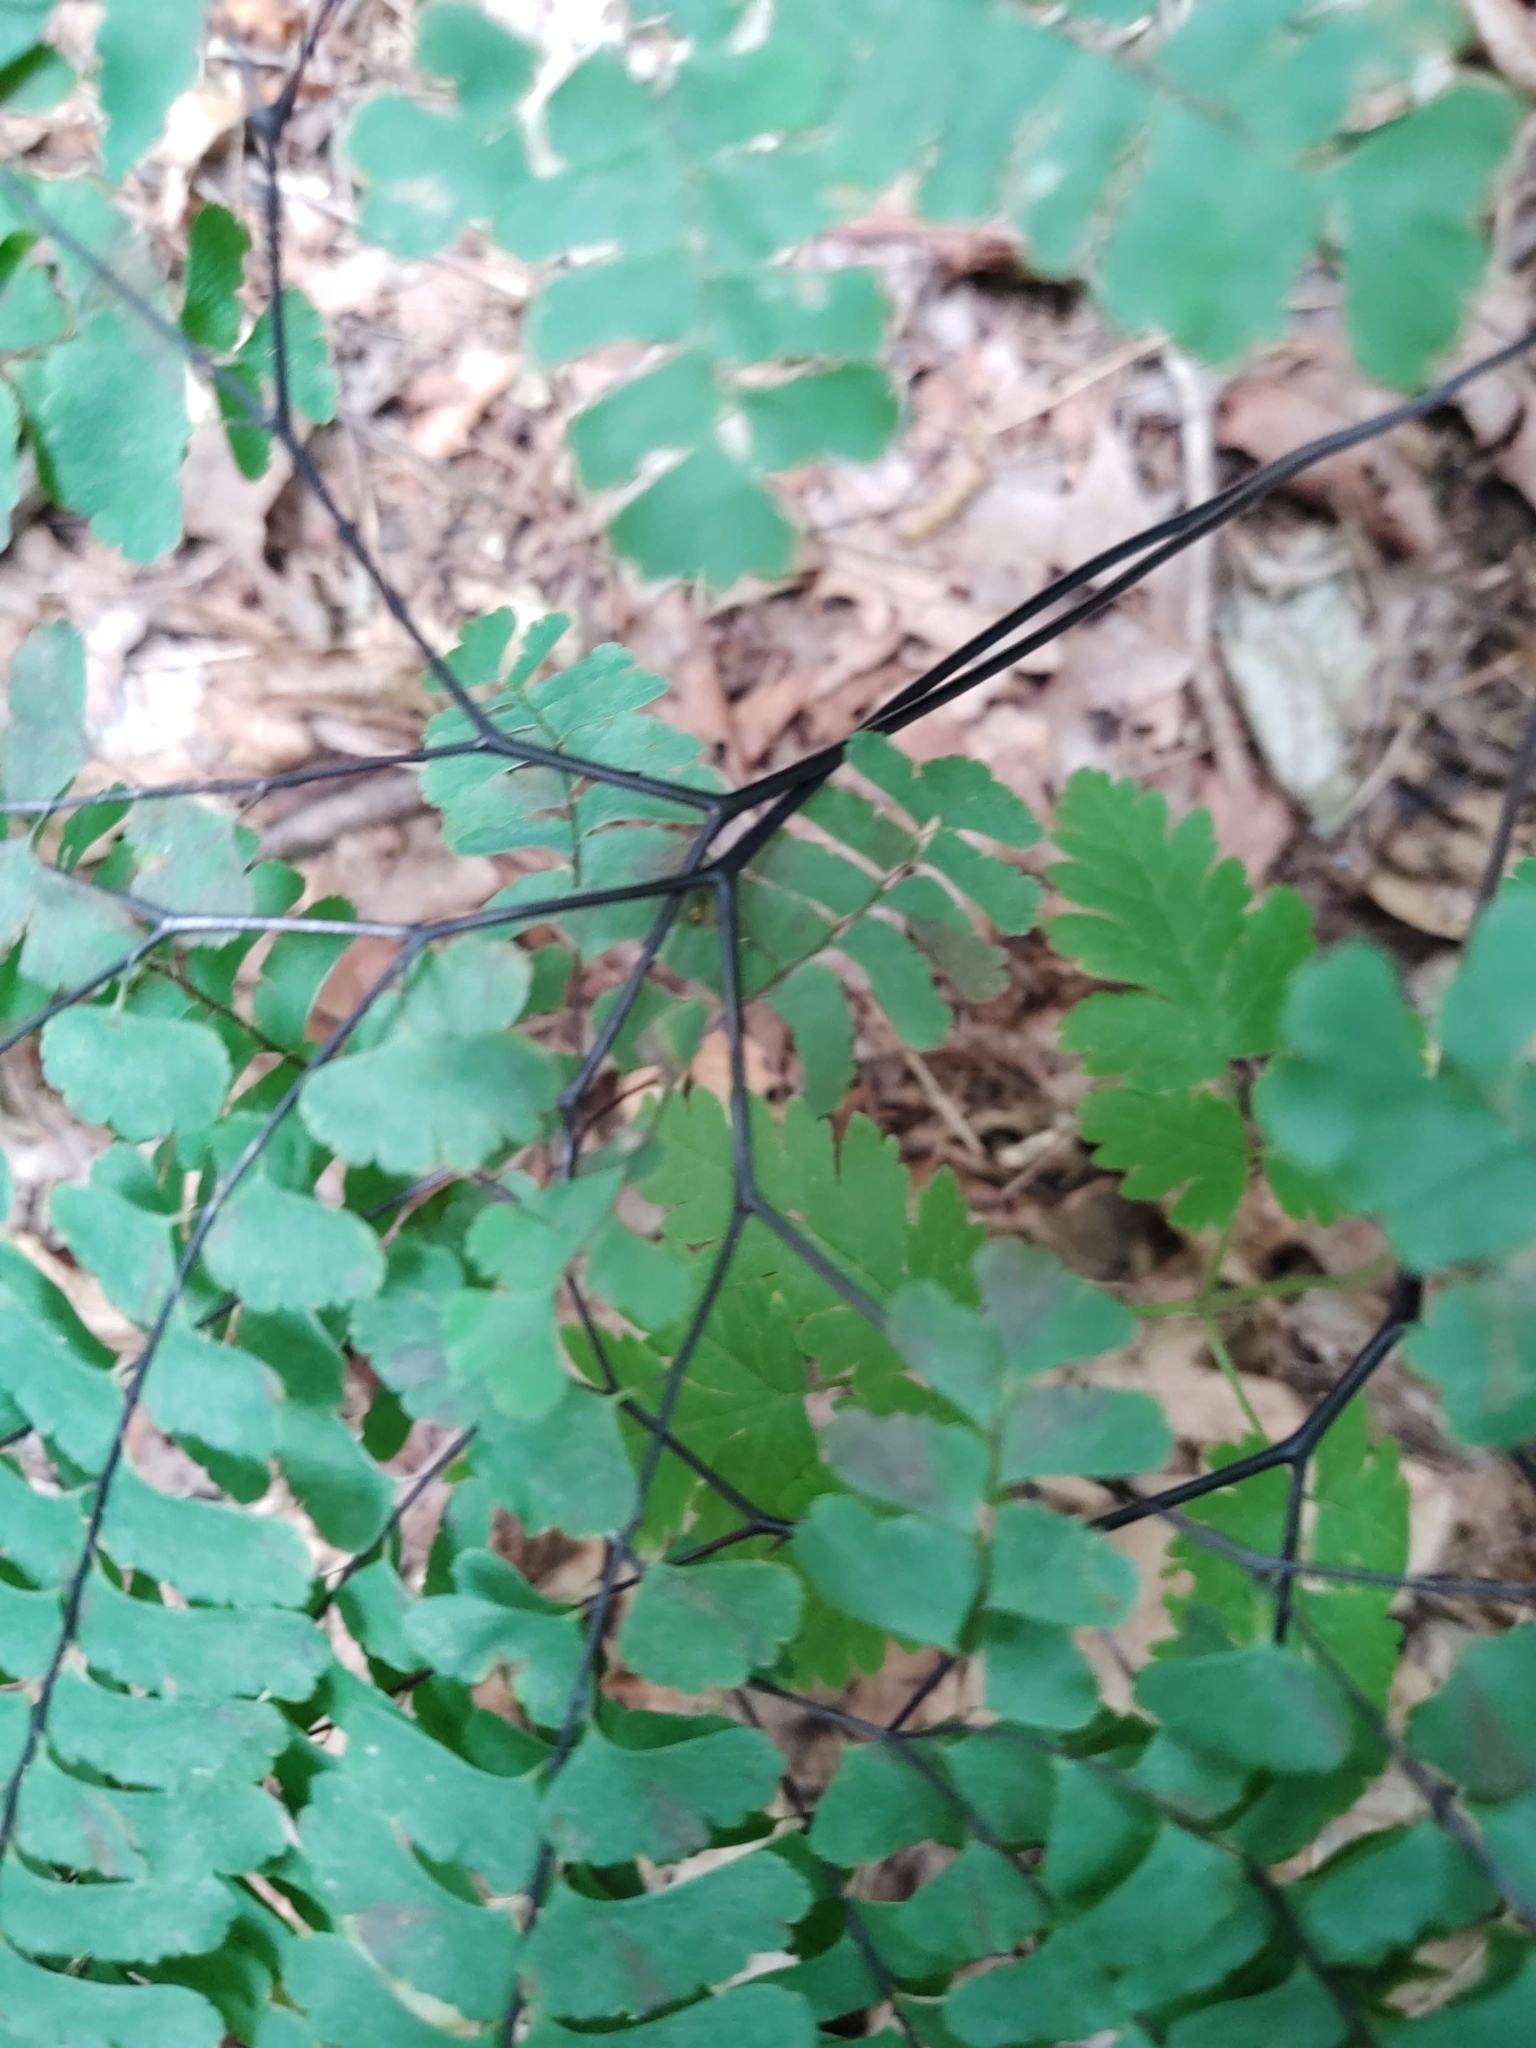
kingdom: Plantae
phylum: Tracheophyta
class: Polypodiopsida
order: Polypodiales
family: Pteridaceae
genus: Adiantum
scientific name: Adiantum pedatum
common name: Five-finger fern
